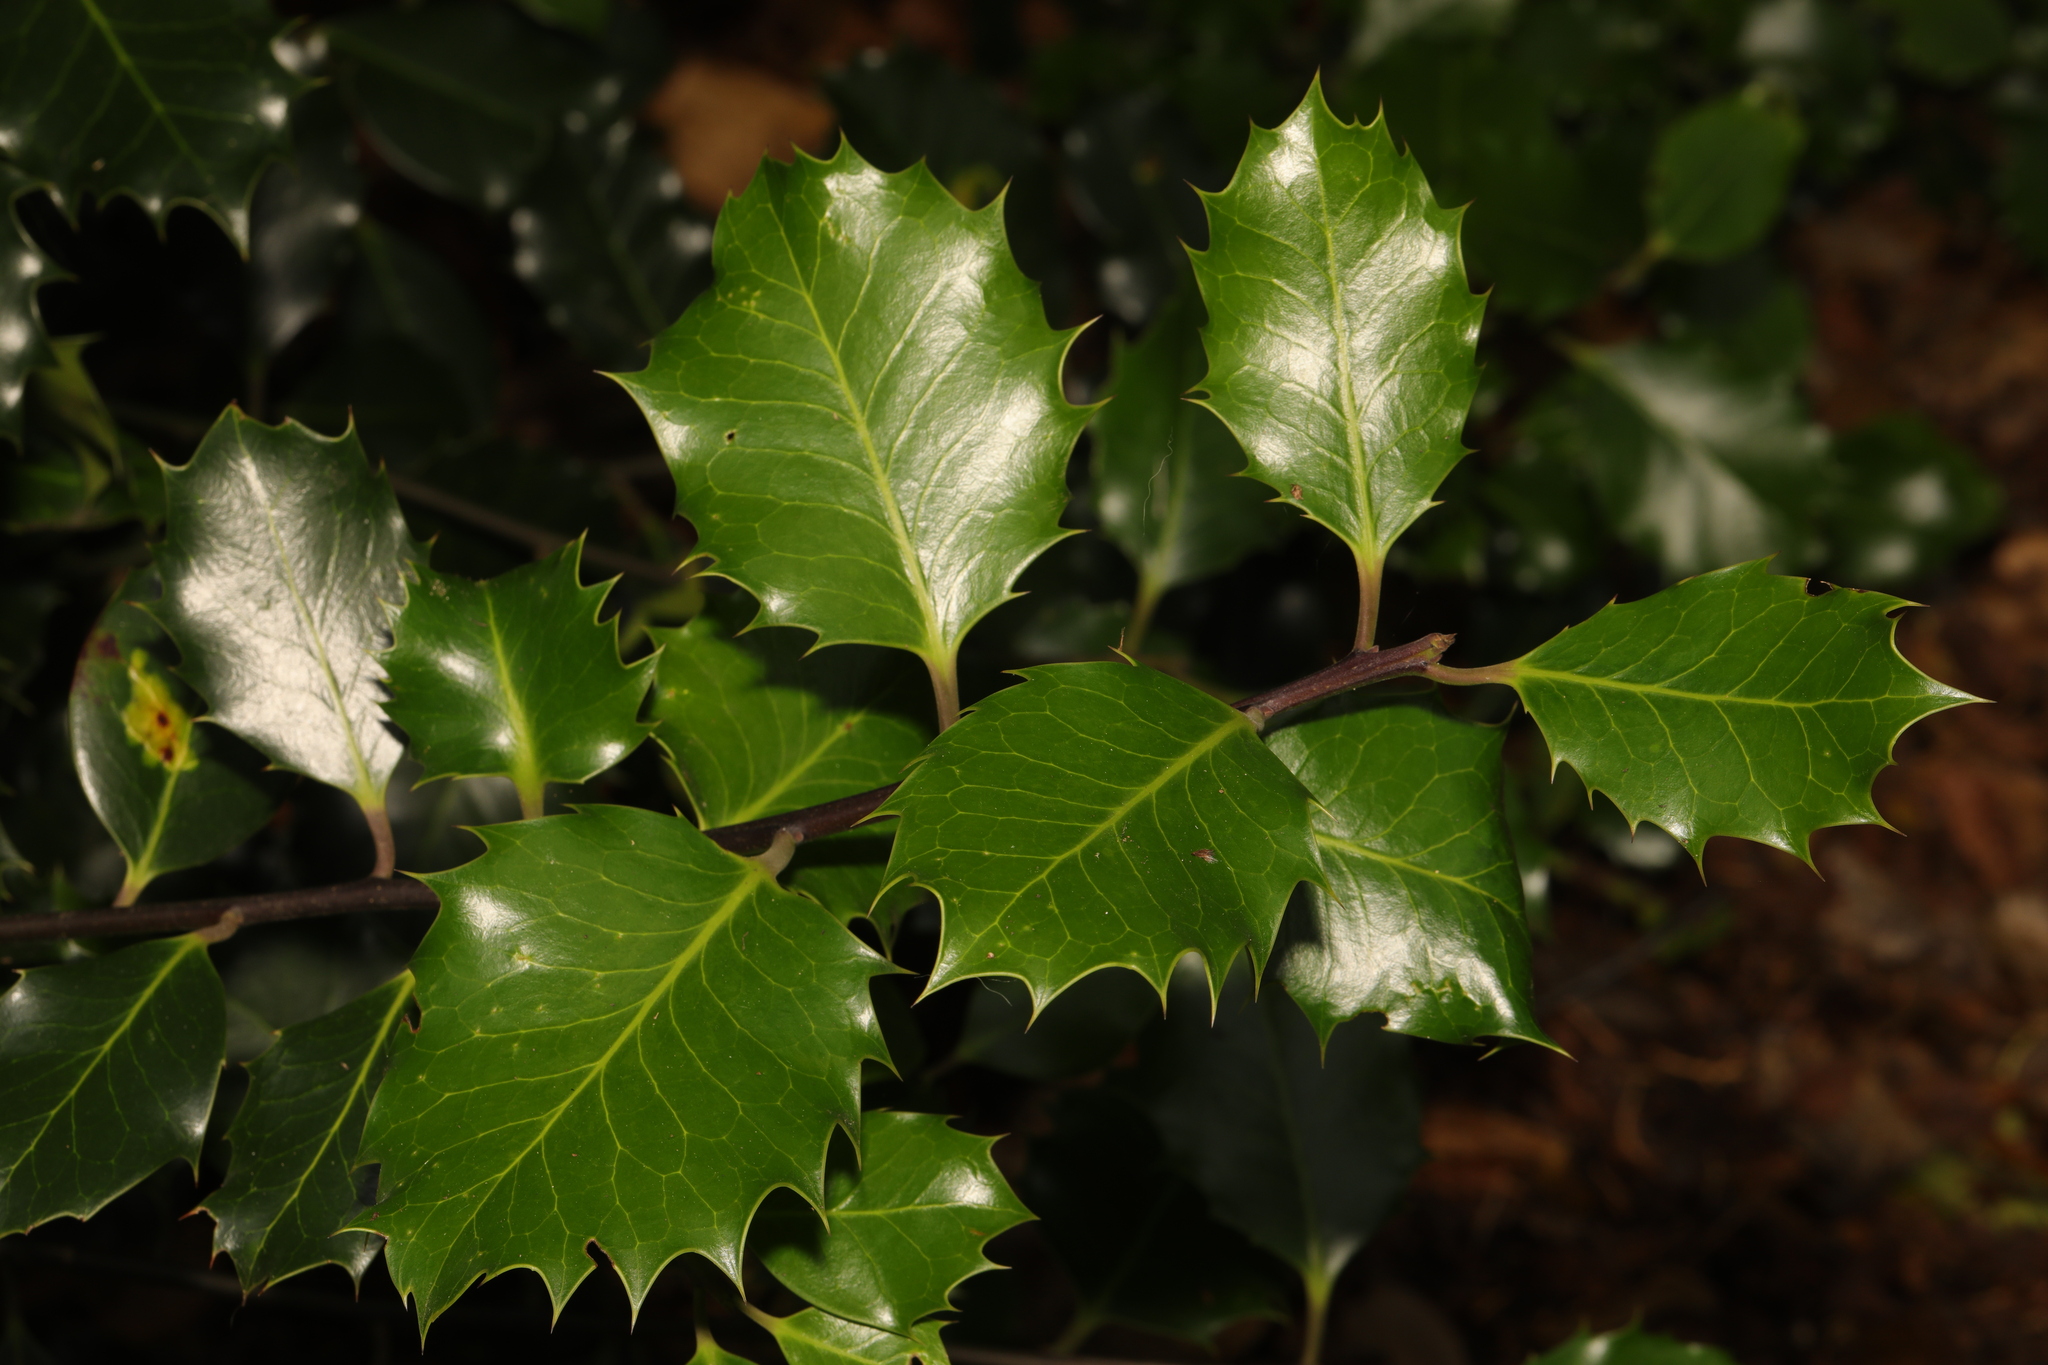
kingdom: Plantae
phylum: Tracheophyta
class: Magnoliopsida
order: Aquifoliales
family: Aquifoliaceae
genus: Ilex
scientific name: Ilex aquifolium
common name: English holly
